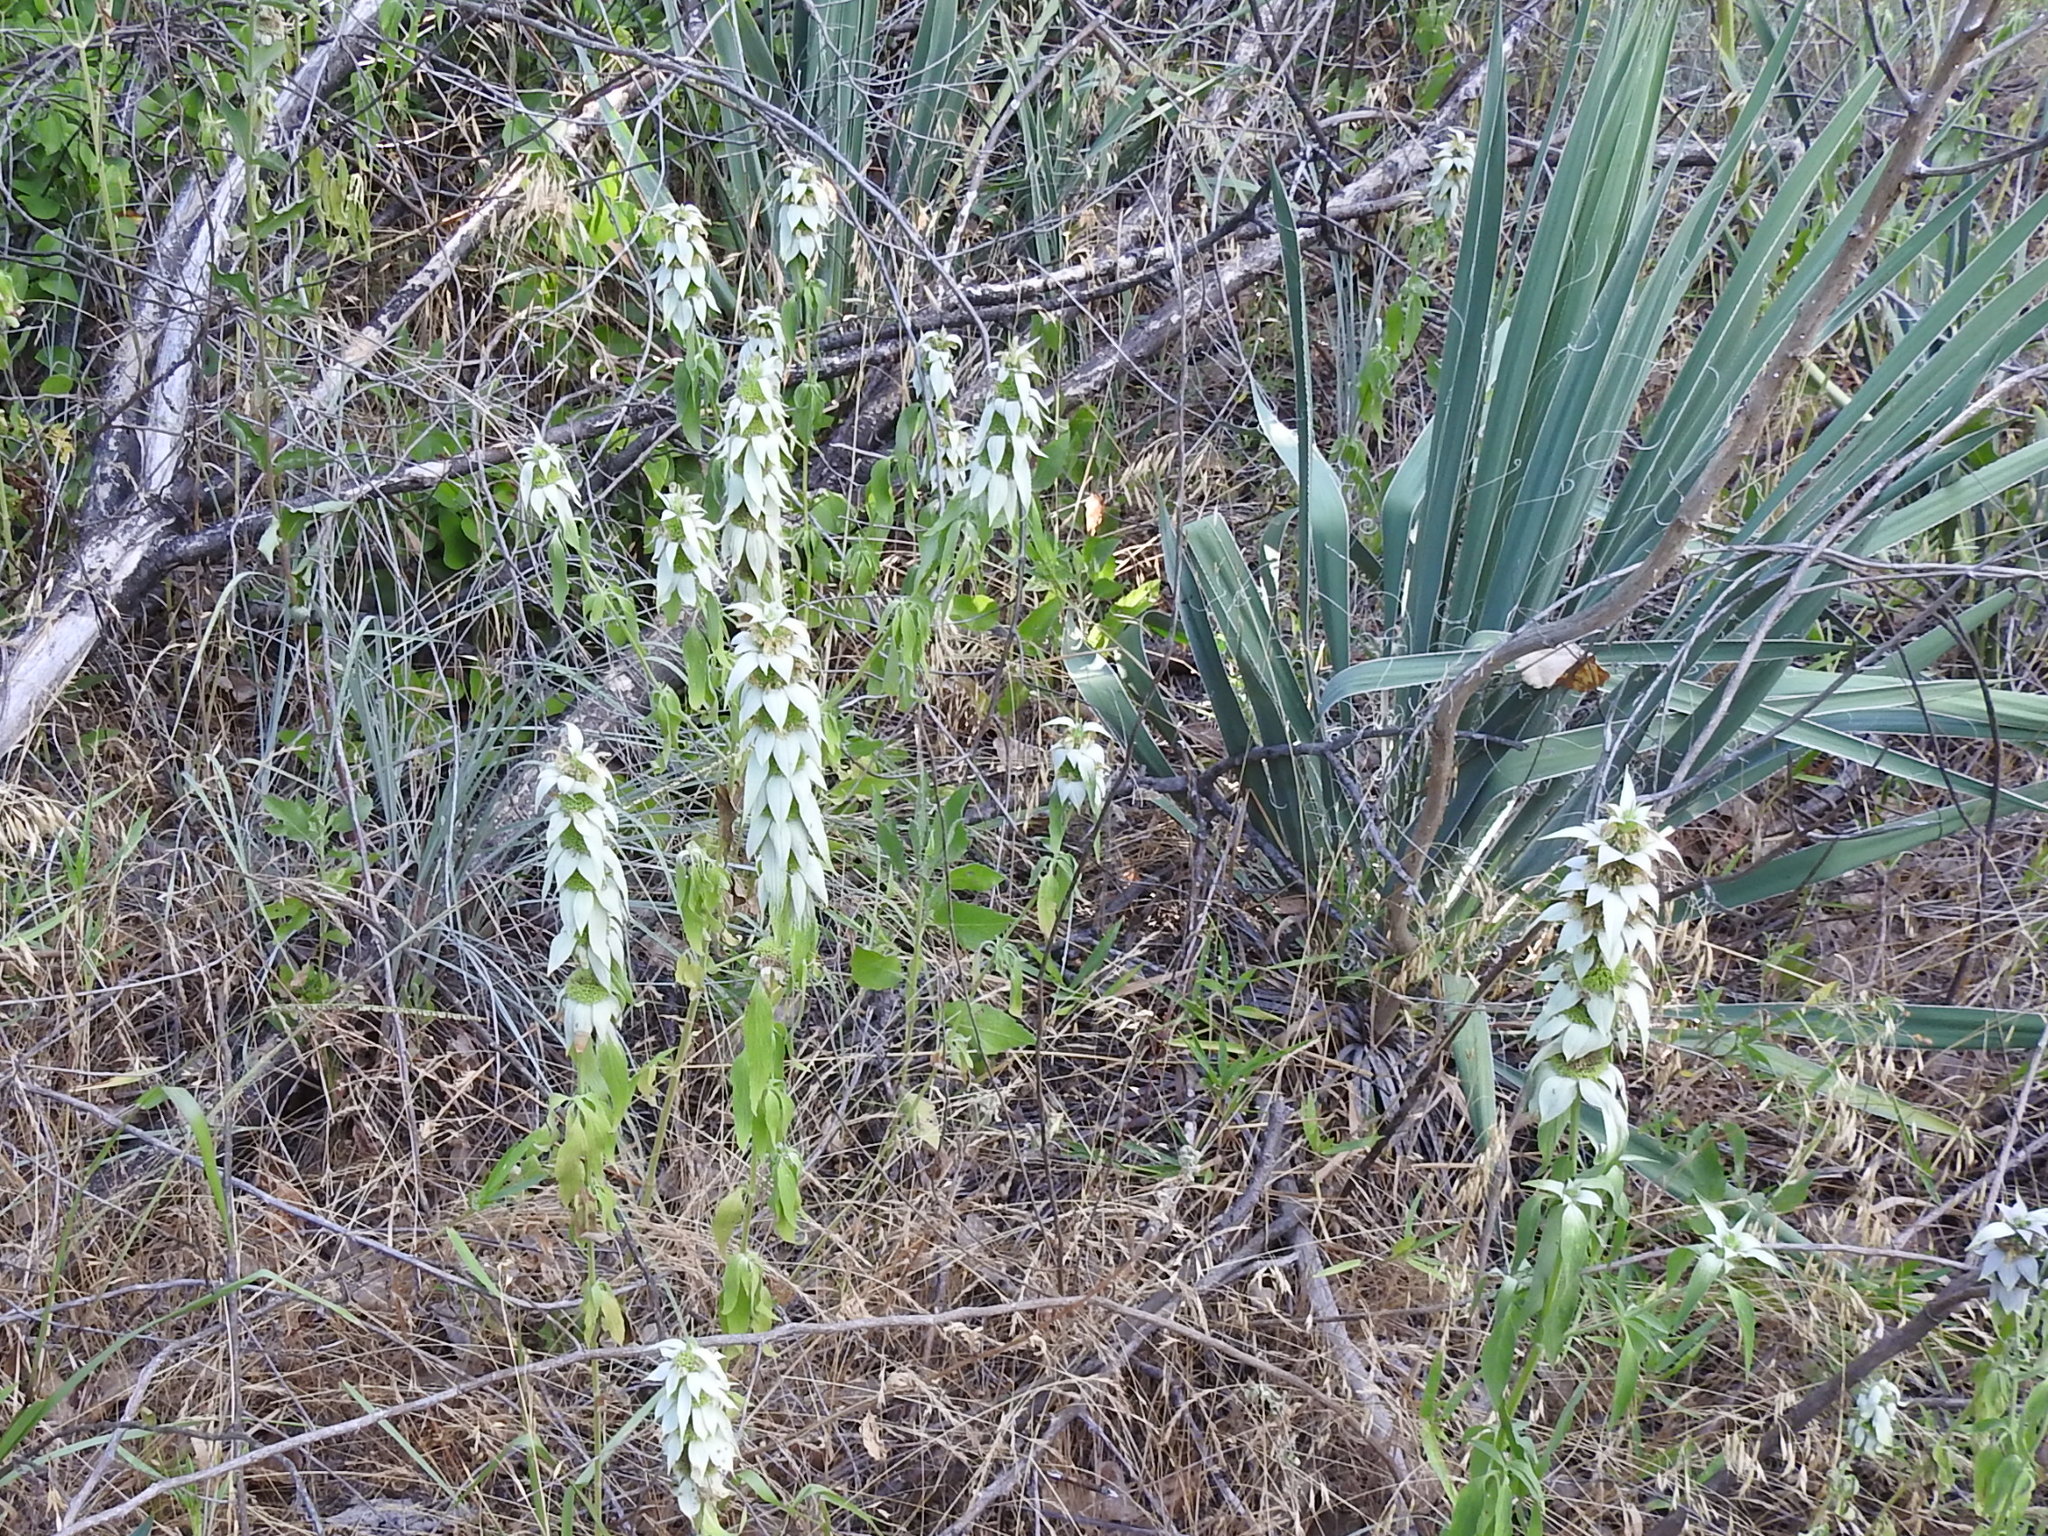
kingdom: Plantae
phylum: Tracheophyta
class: Magnoliopsida
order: Lamiales
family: Lamiaceae
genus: Monarda
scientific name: Monarda punctata
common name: Dotted monarda
